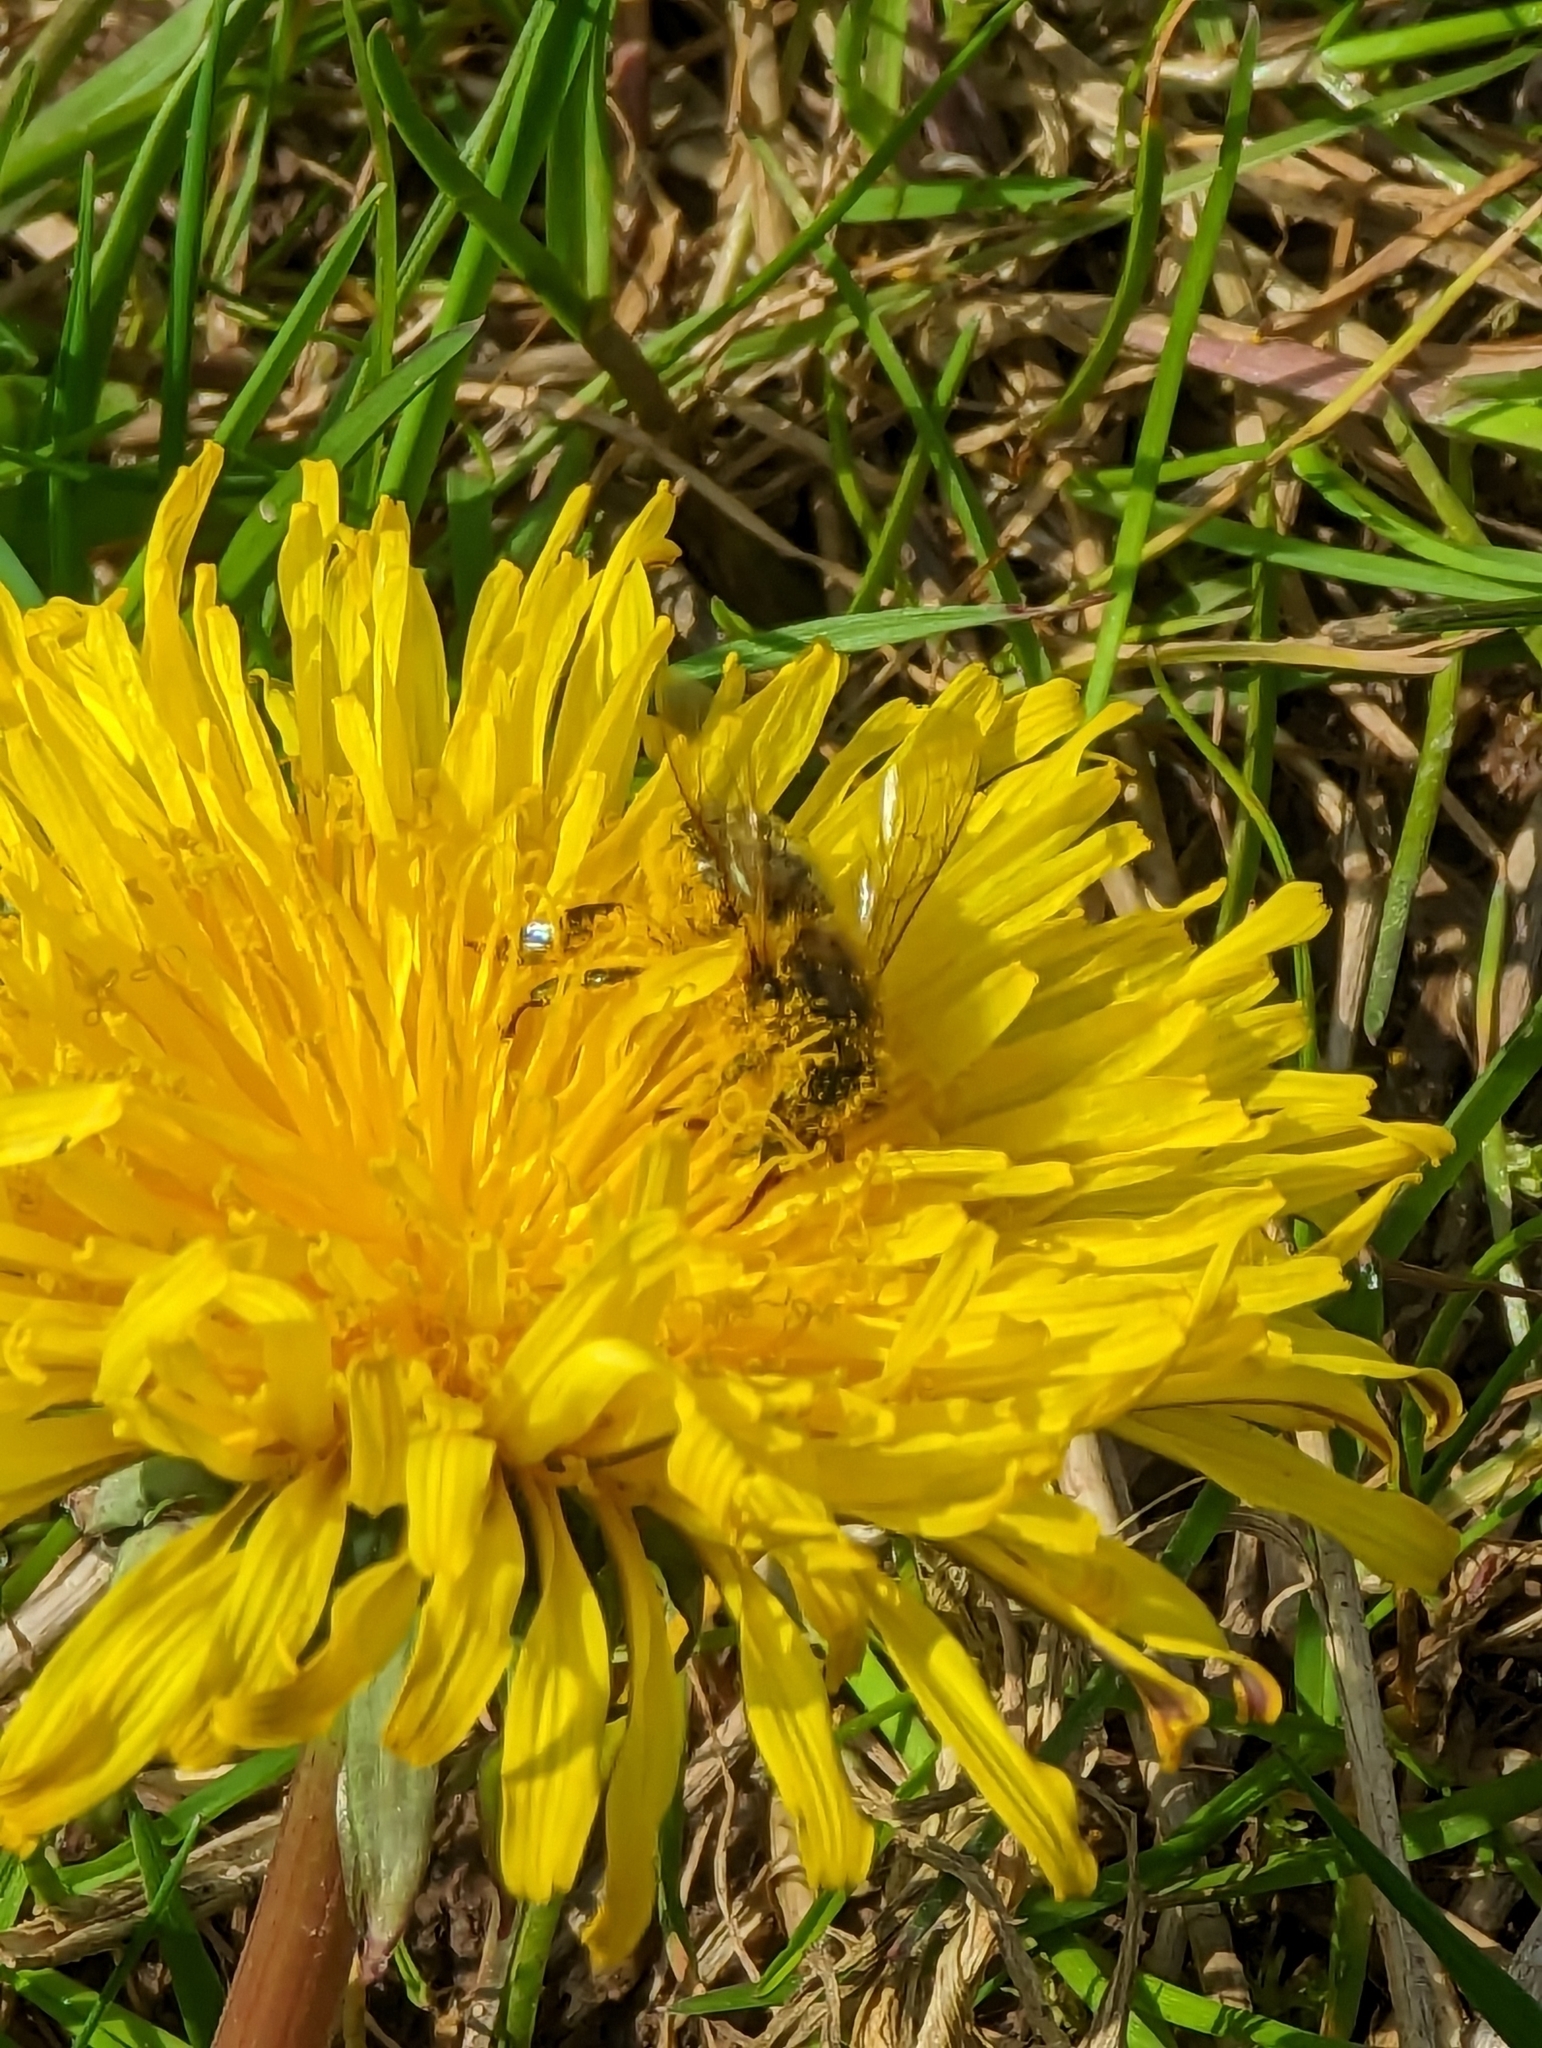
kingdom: Animalia
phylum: Arthropoda
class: Insecta
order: Hymenoptera
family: Apidae
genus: Apis
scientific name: Apis mellifera
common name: Honey bee
